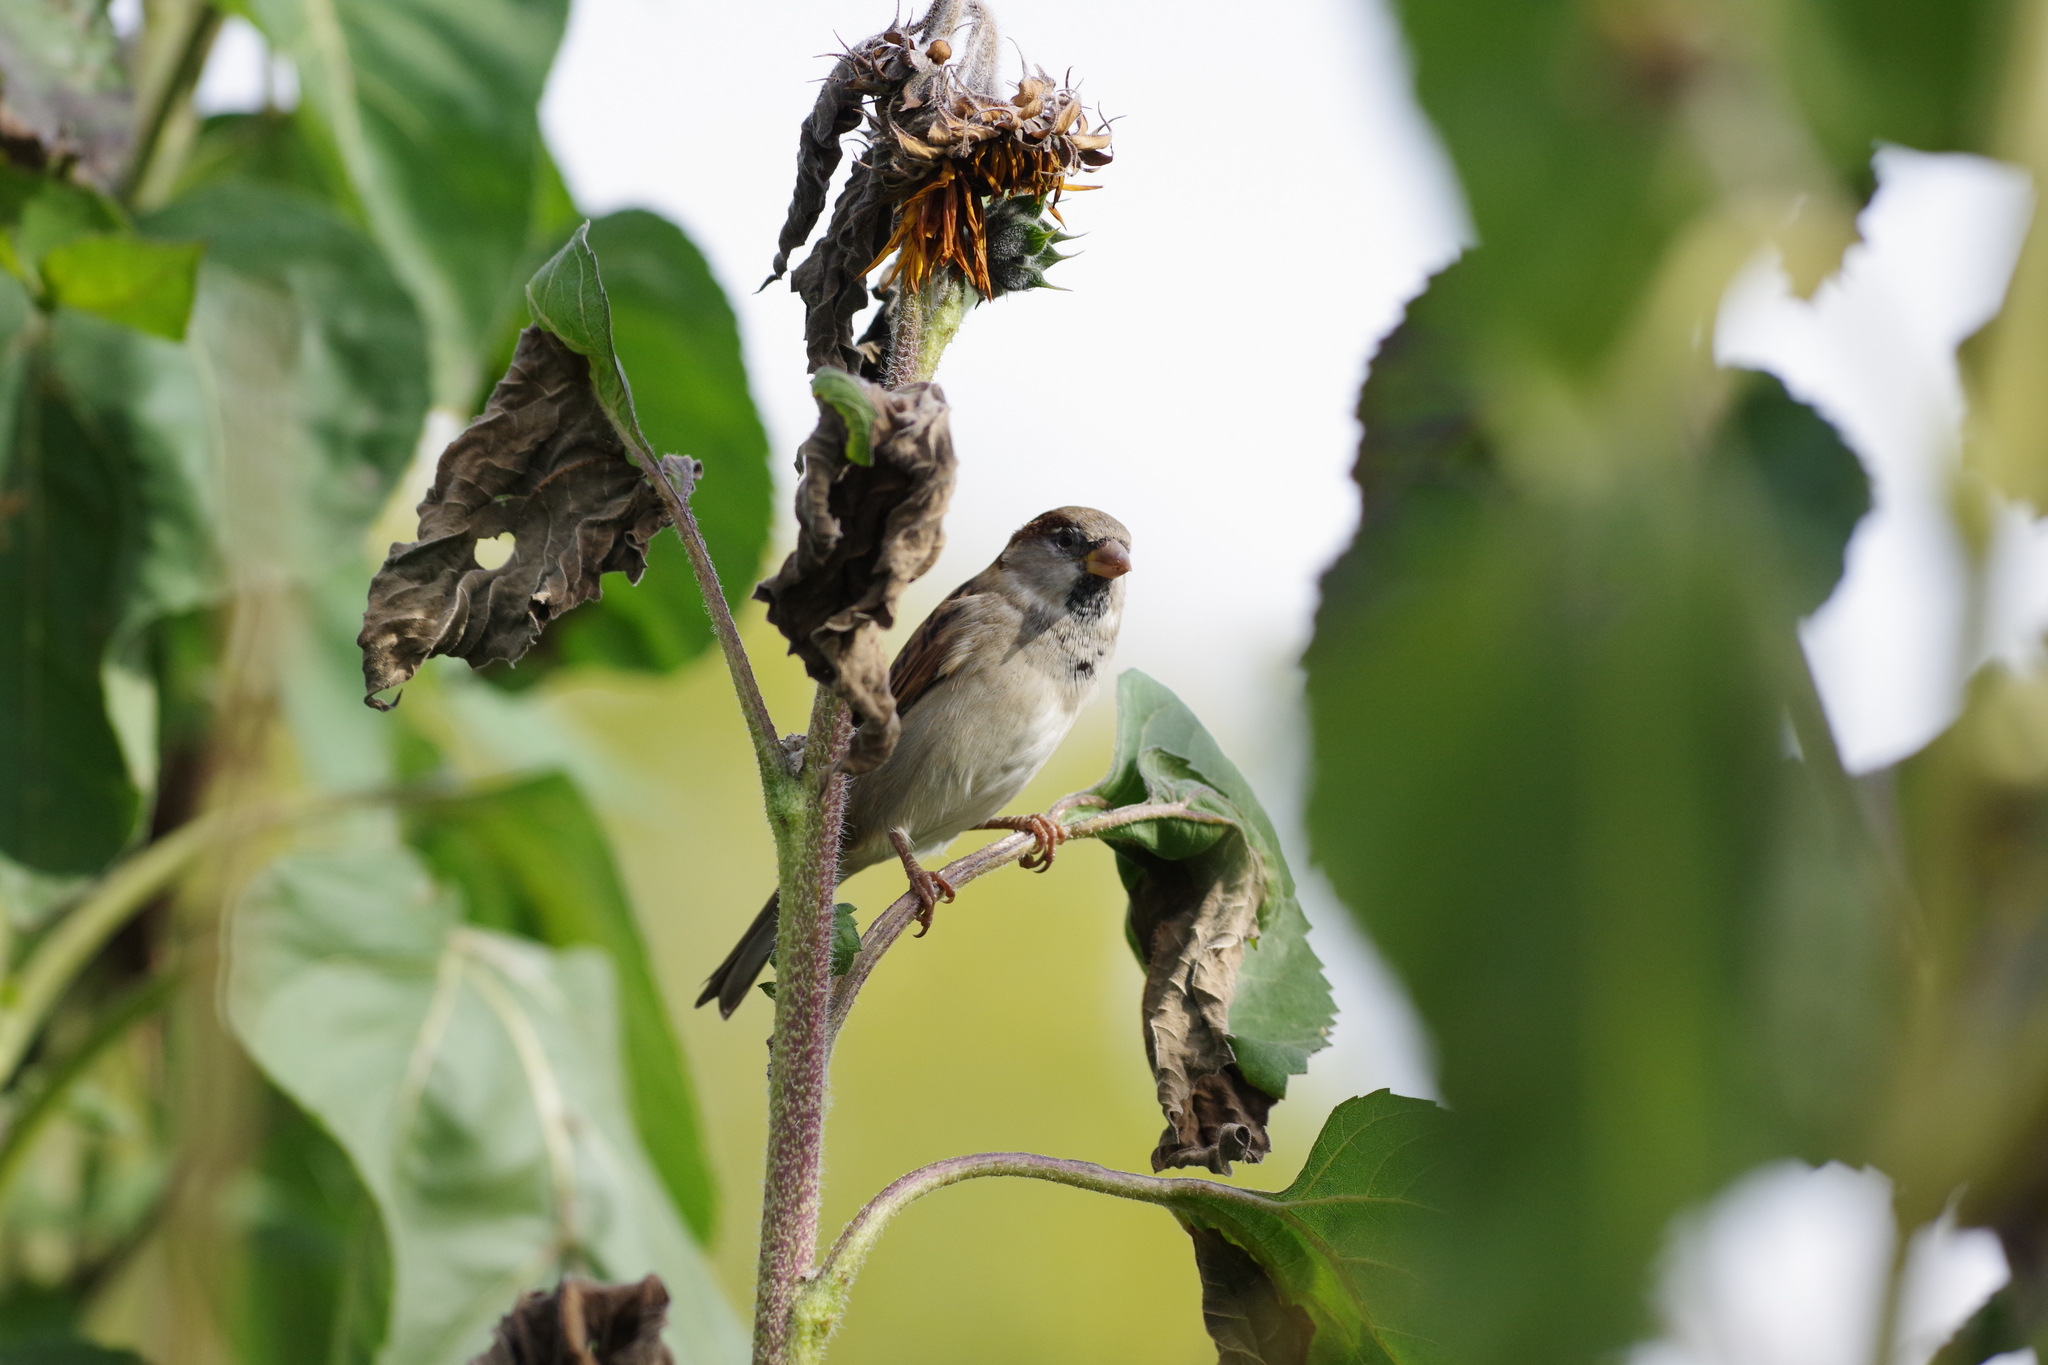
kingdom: Animalia
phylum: Chordata
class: Aves
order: Passeriformes
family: Passeridae
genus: Passer
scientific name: Passer domesticus
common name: House sparrow
